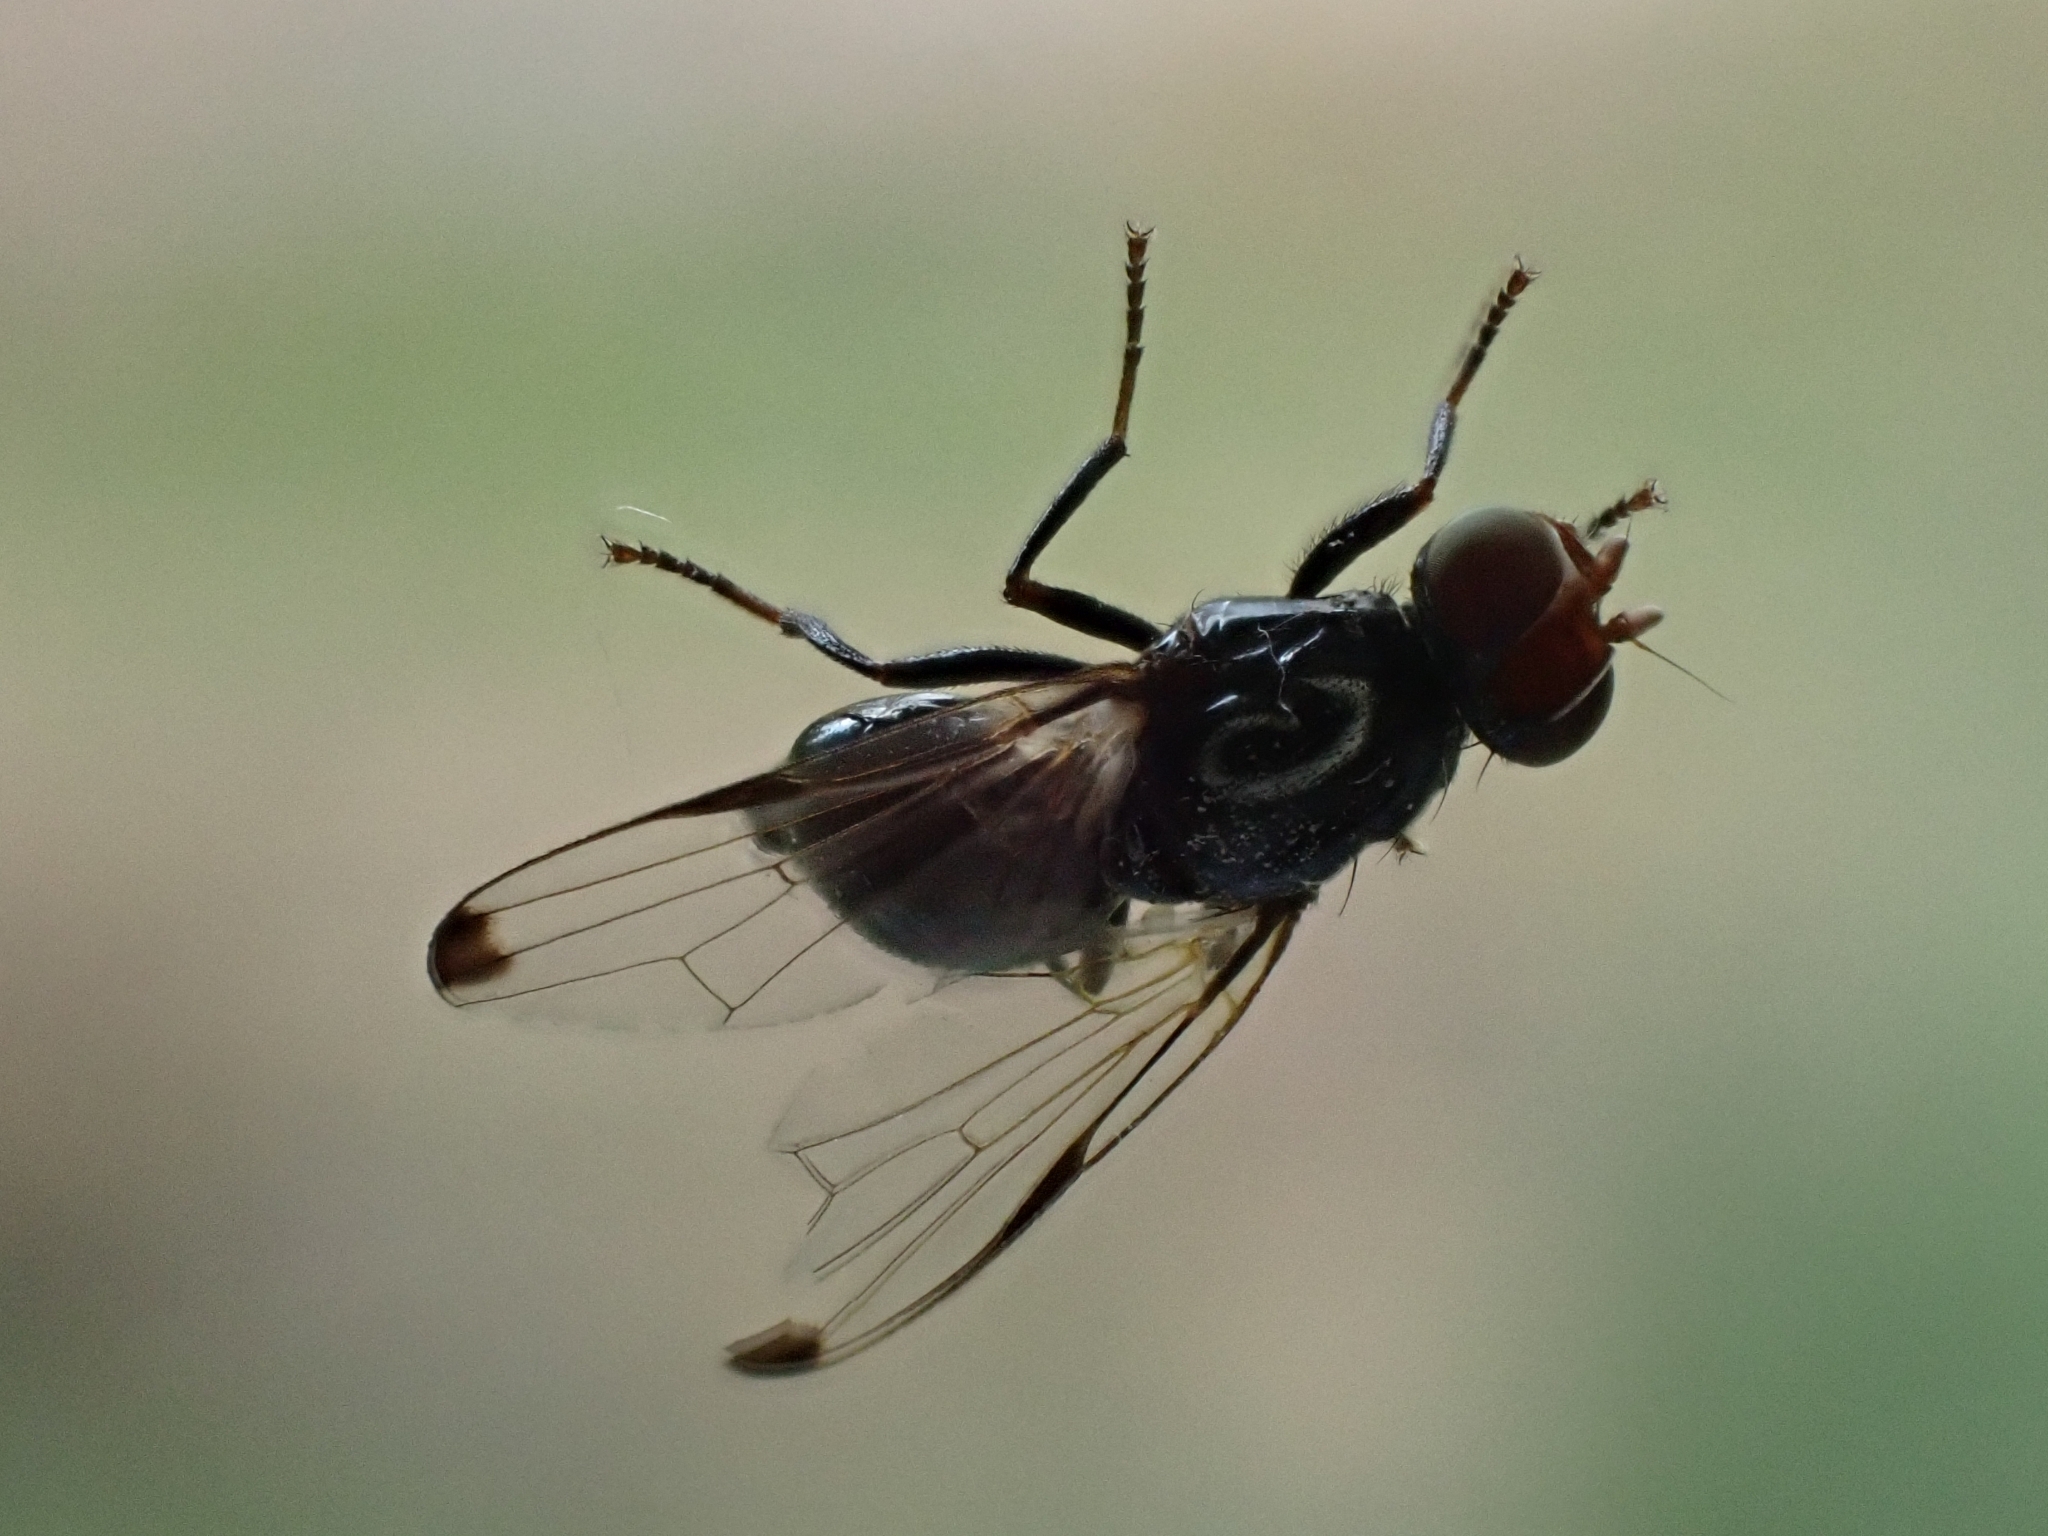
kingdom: Animalia
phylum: Arthropoda
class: Insecta
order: Diptera
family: Ulidiidae
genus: Seioptera
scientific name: Seioptera vibrans
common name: Dark-tipped wingwaver
